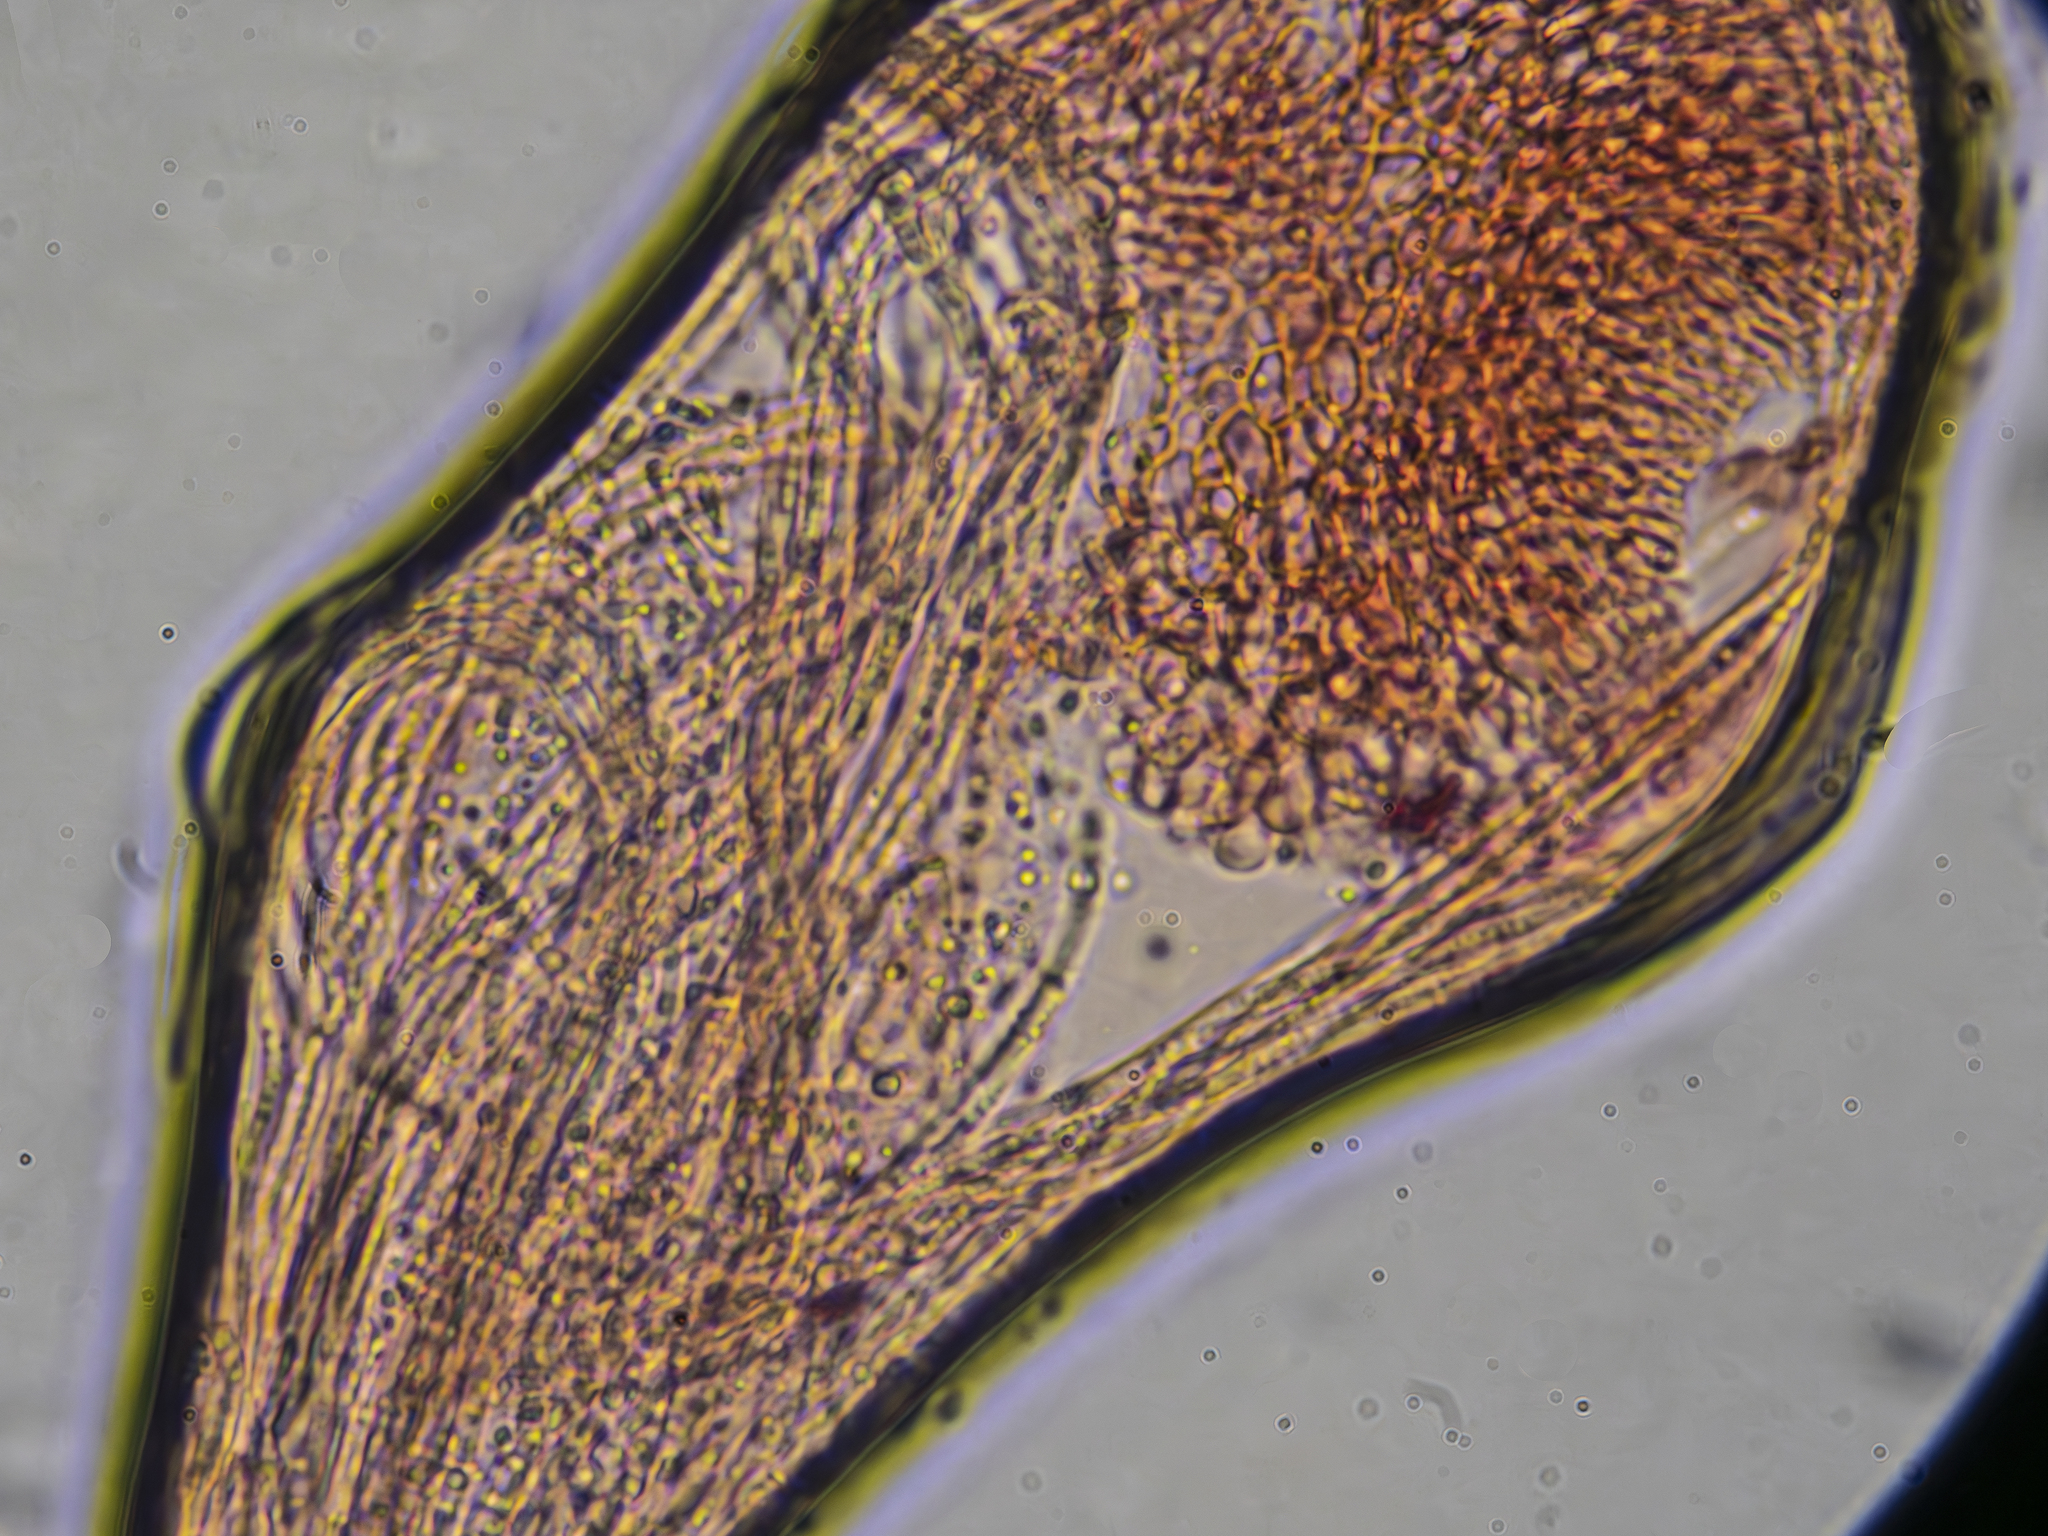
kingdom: Fungi
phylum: Ascomycota
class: Sordariomycetes
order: Hypocreales
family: Clavicipitaceae
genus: Epichloe
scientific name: Epichloe typhina
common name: Choke
